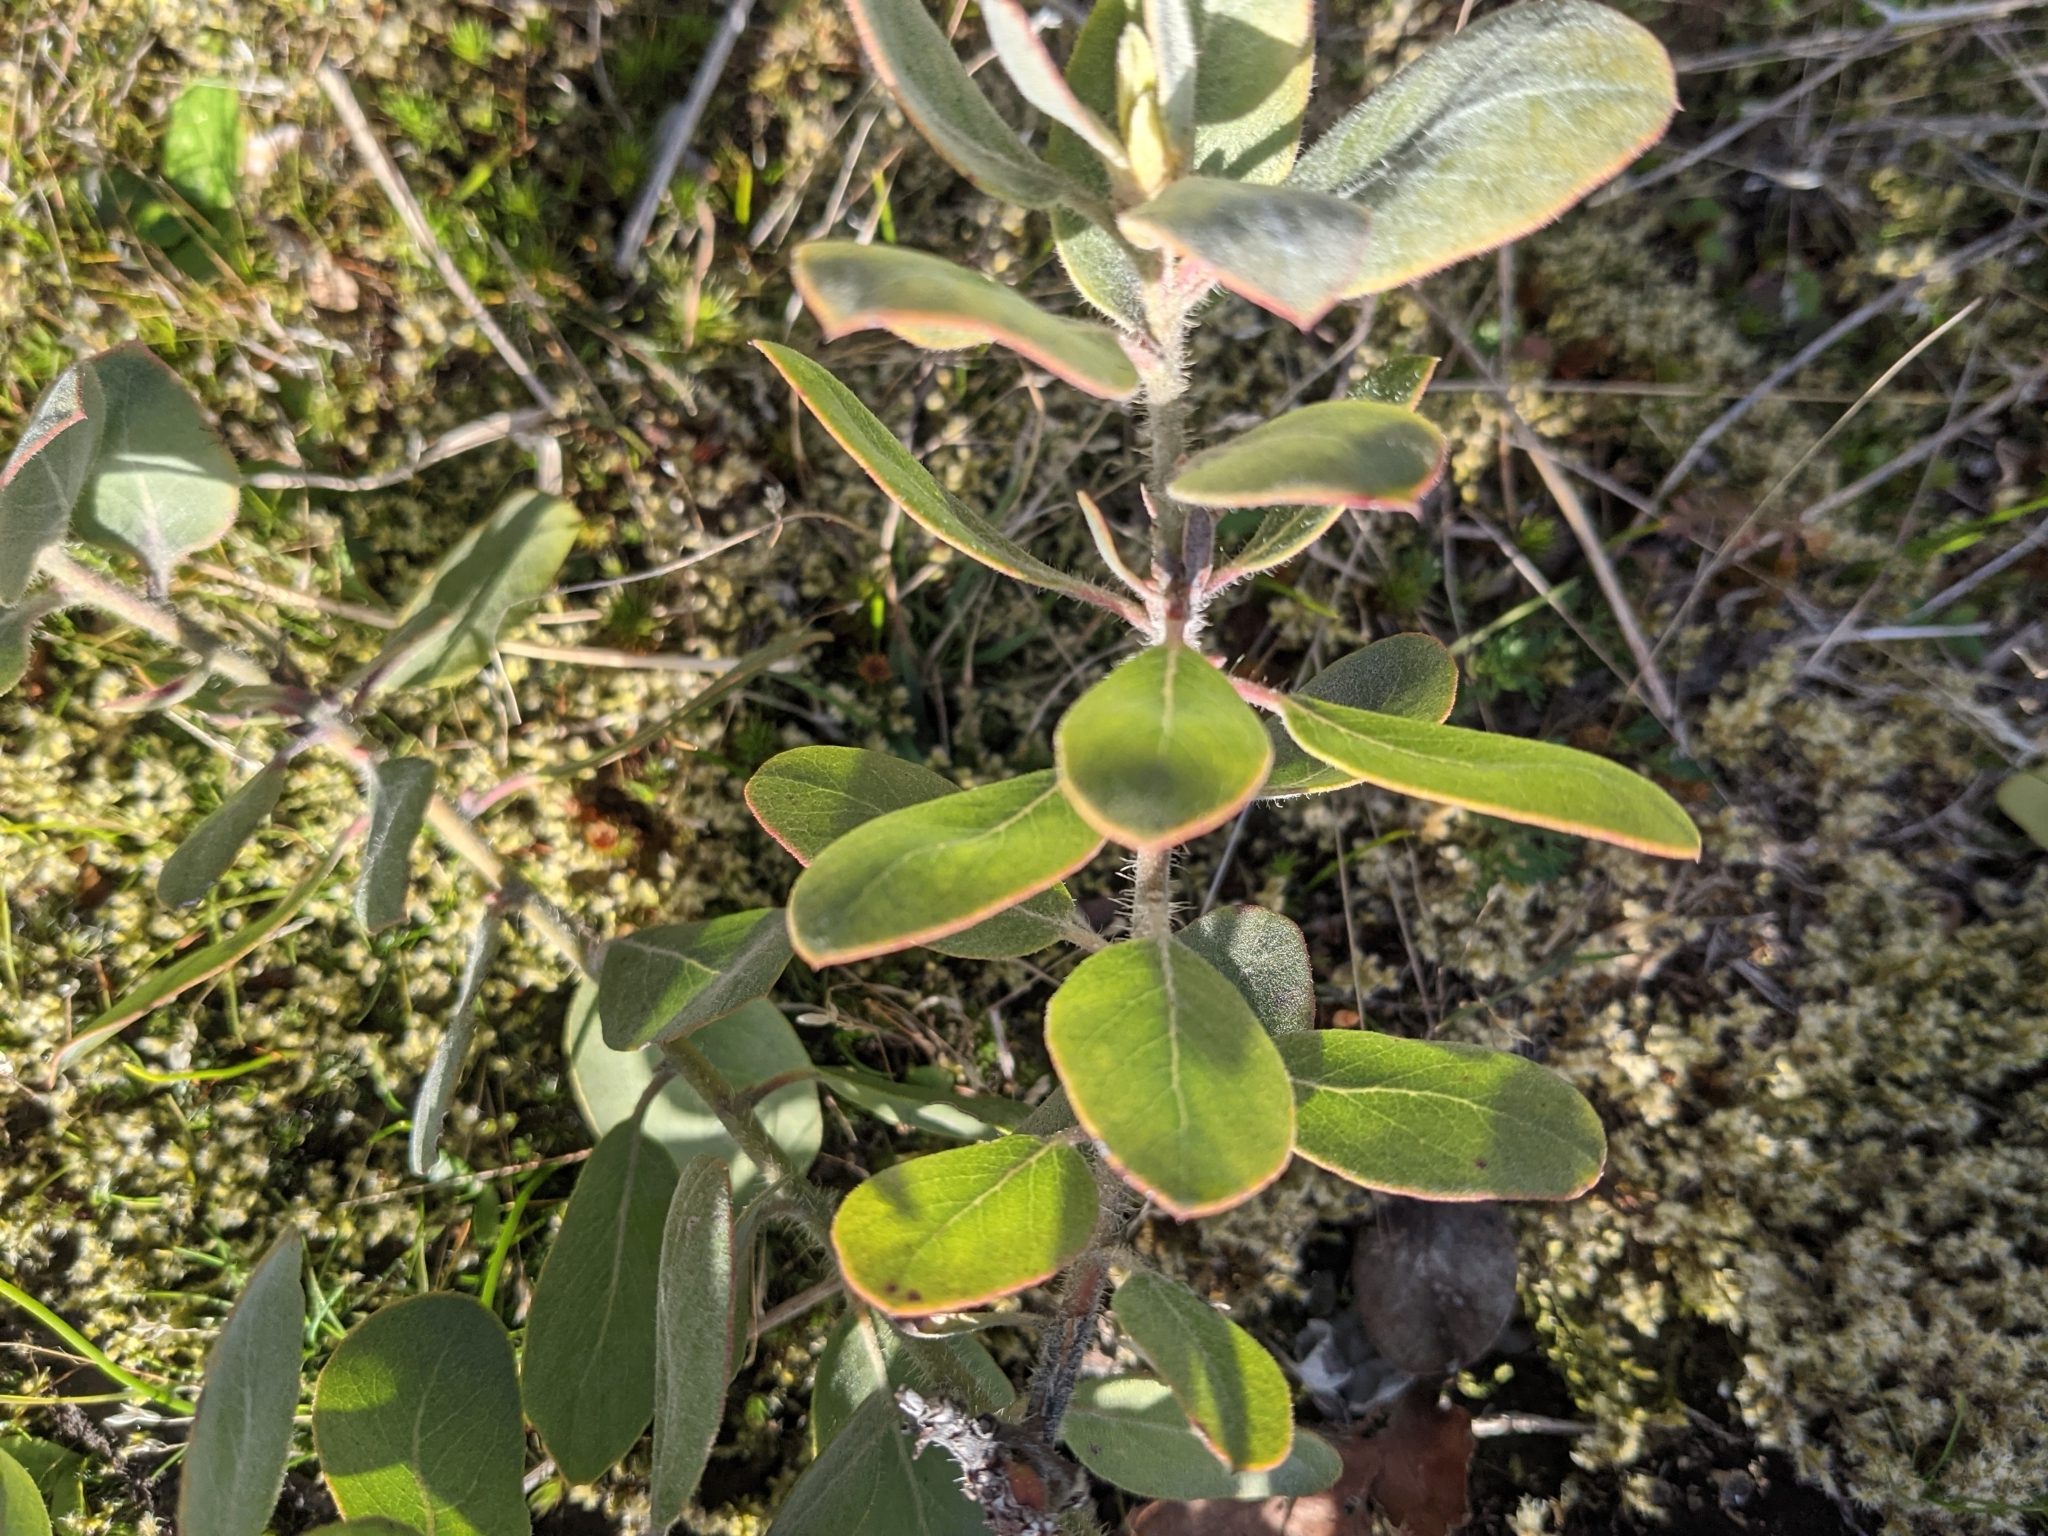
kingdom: Plantae
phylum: Tracheophyta
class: Magnoliopsida
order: Ericales
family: Ericaceae
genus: Arctostaphylos
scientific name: Arctostaphylos columbiana
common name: Bristly bearberry
